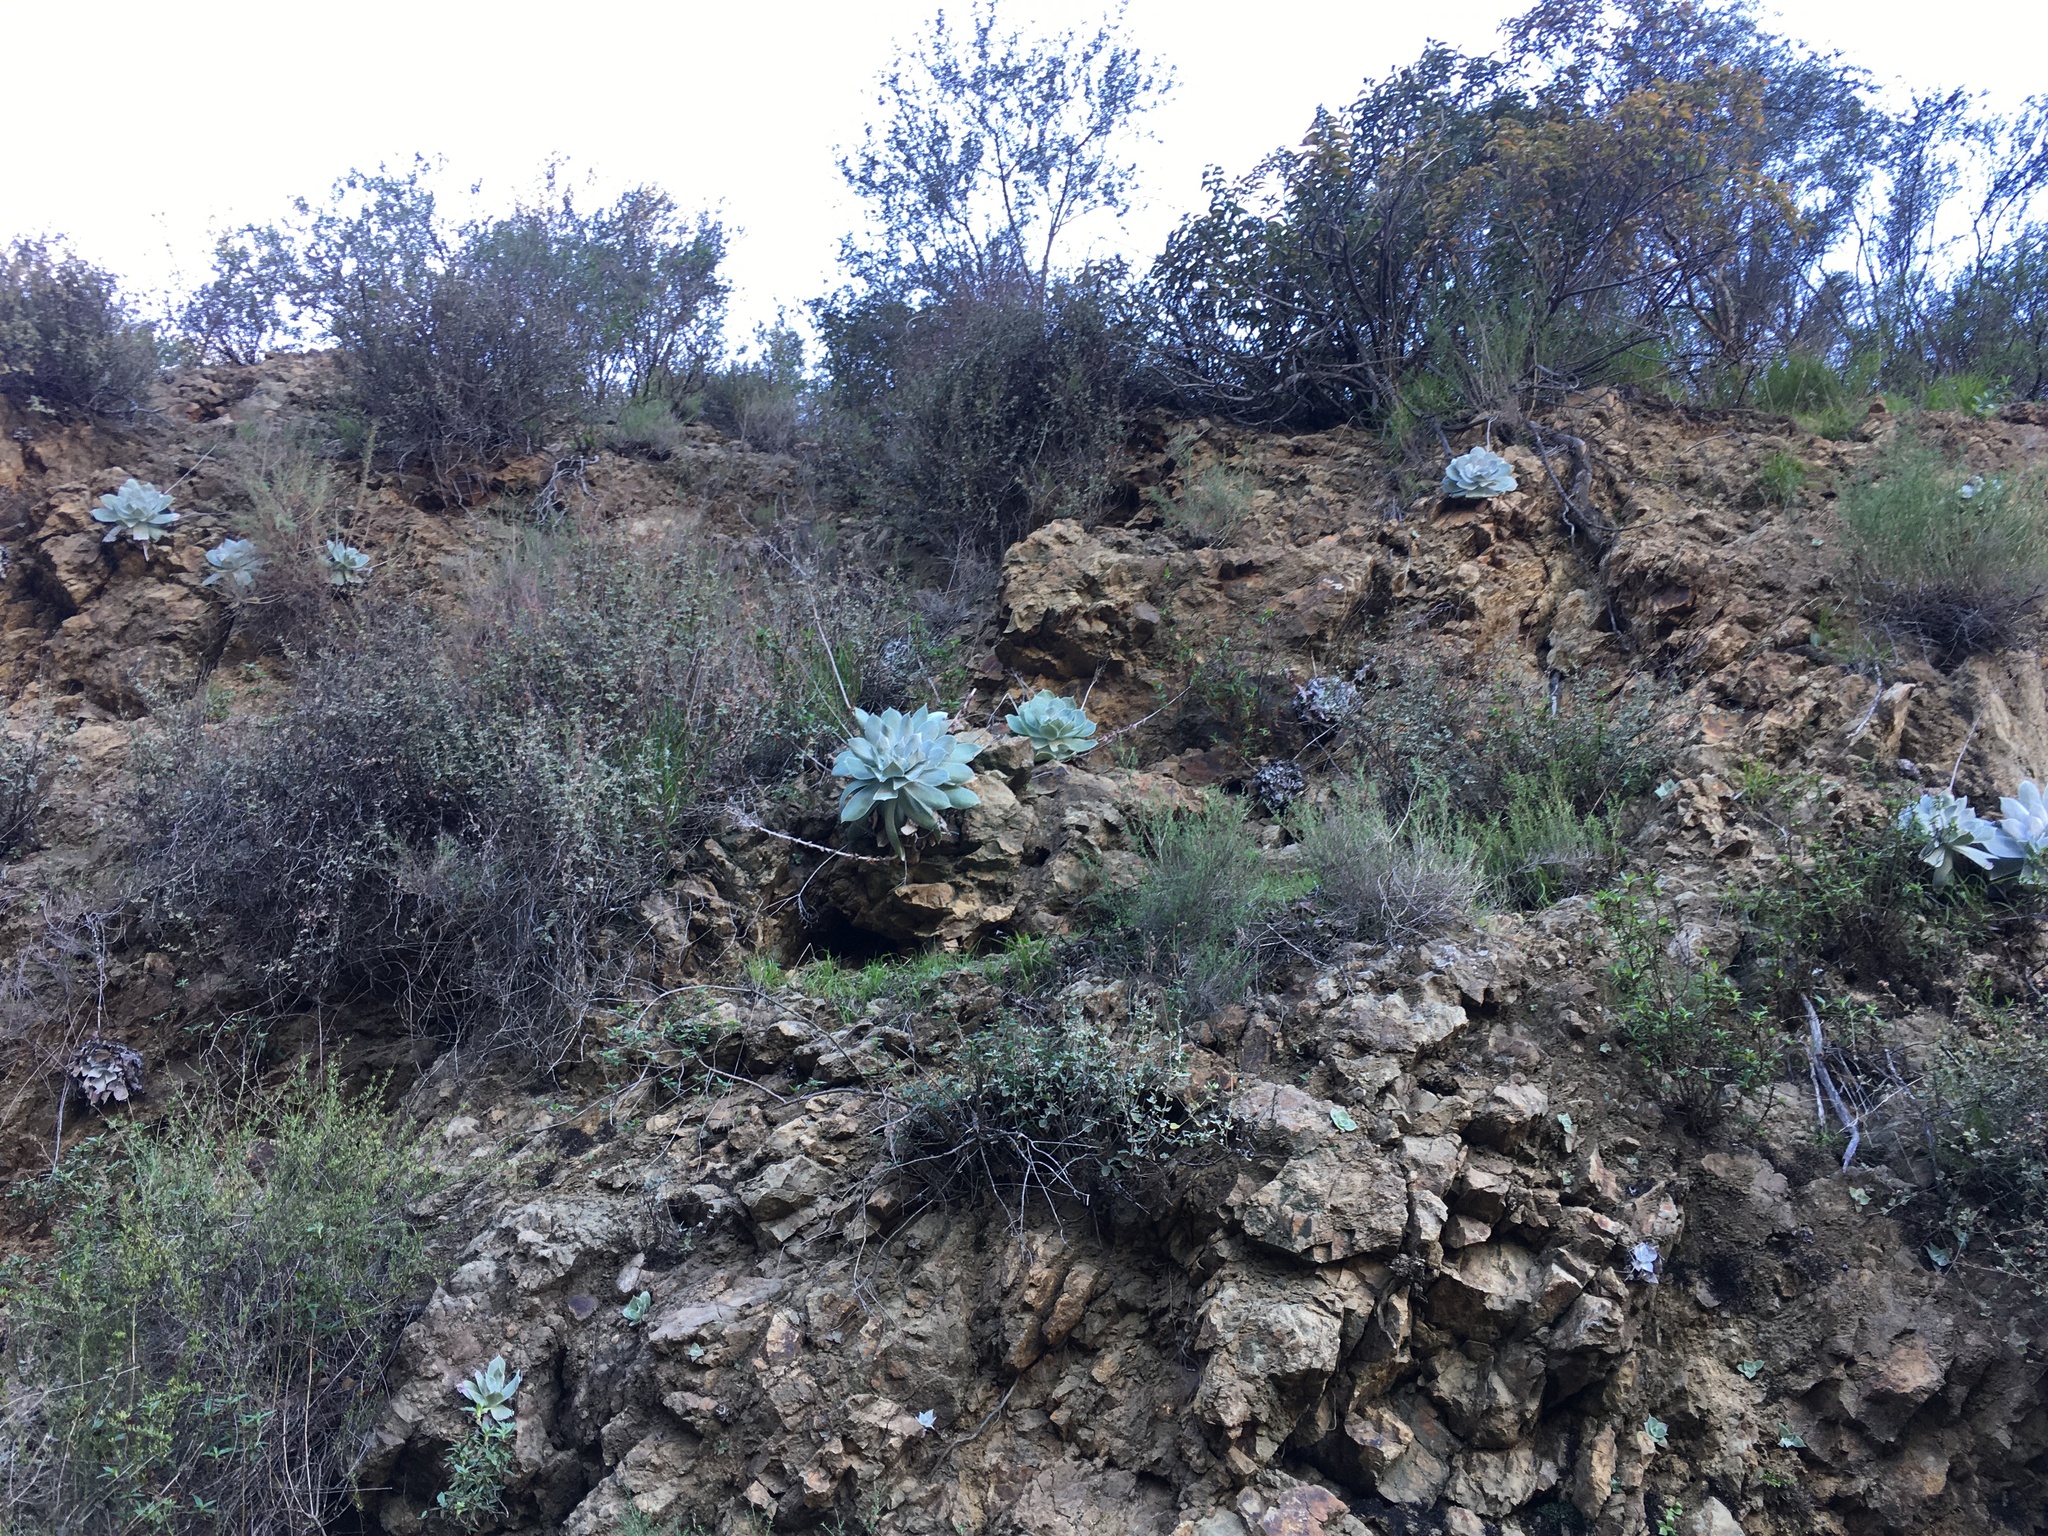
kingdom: Plantae
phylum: Tracheophyta
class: Magnoliopsida
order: Saxifragales
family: Crassulaceae
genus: Dudleya
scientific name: Dudleya pulverulenta
